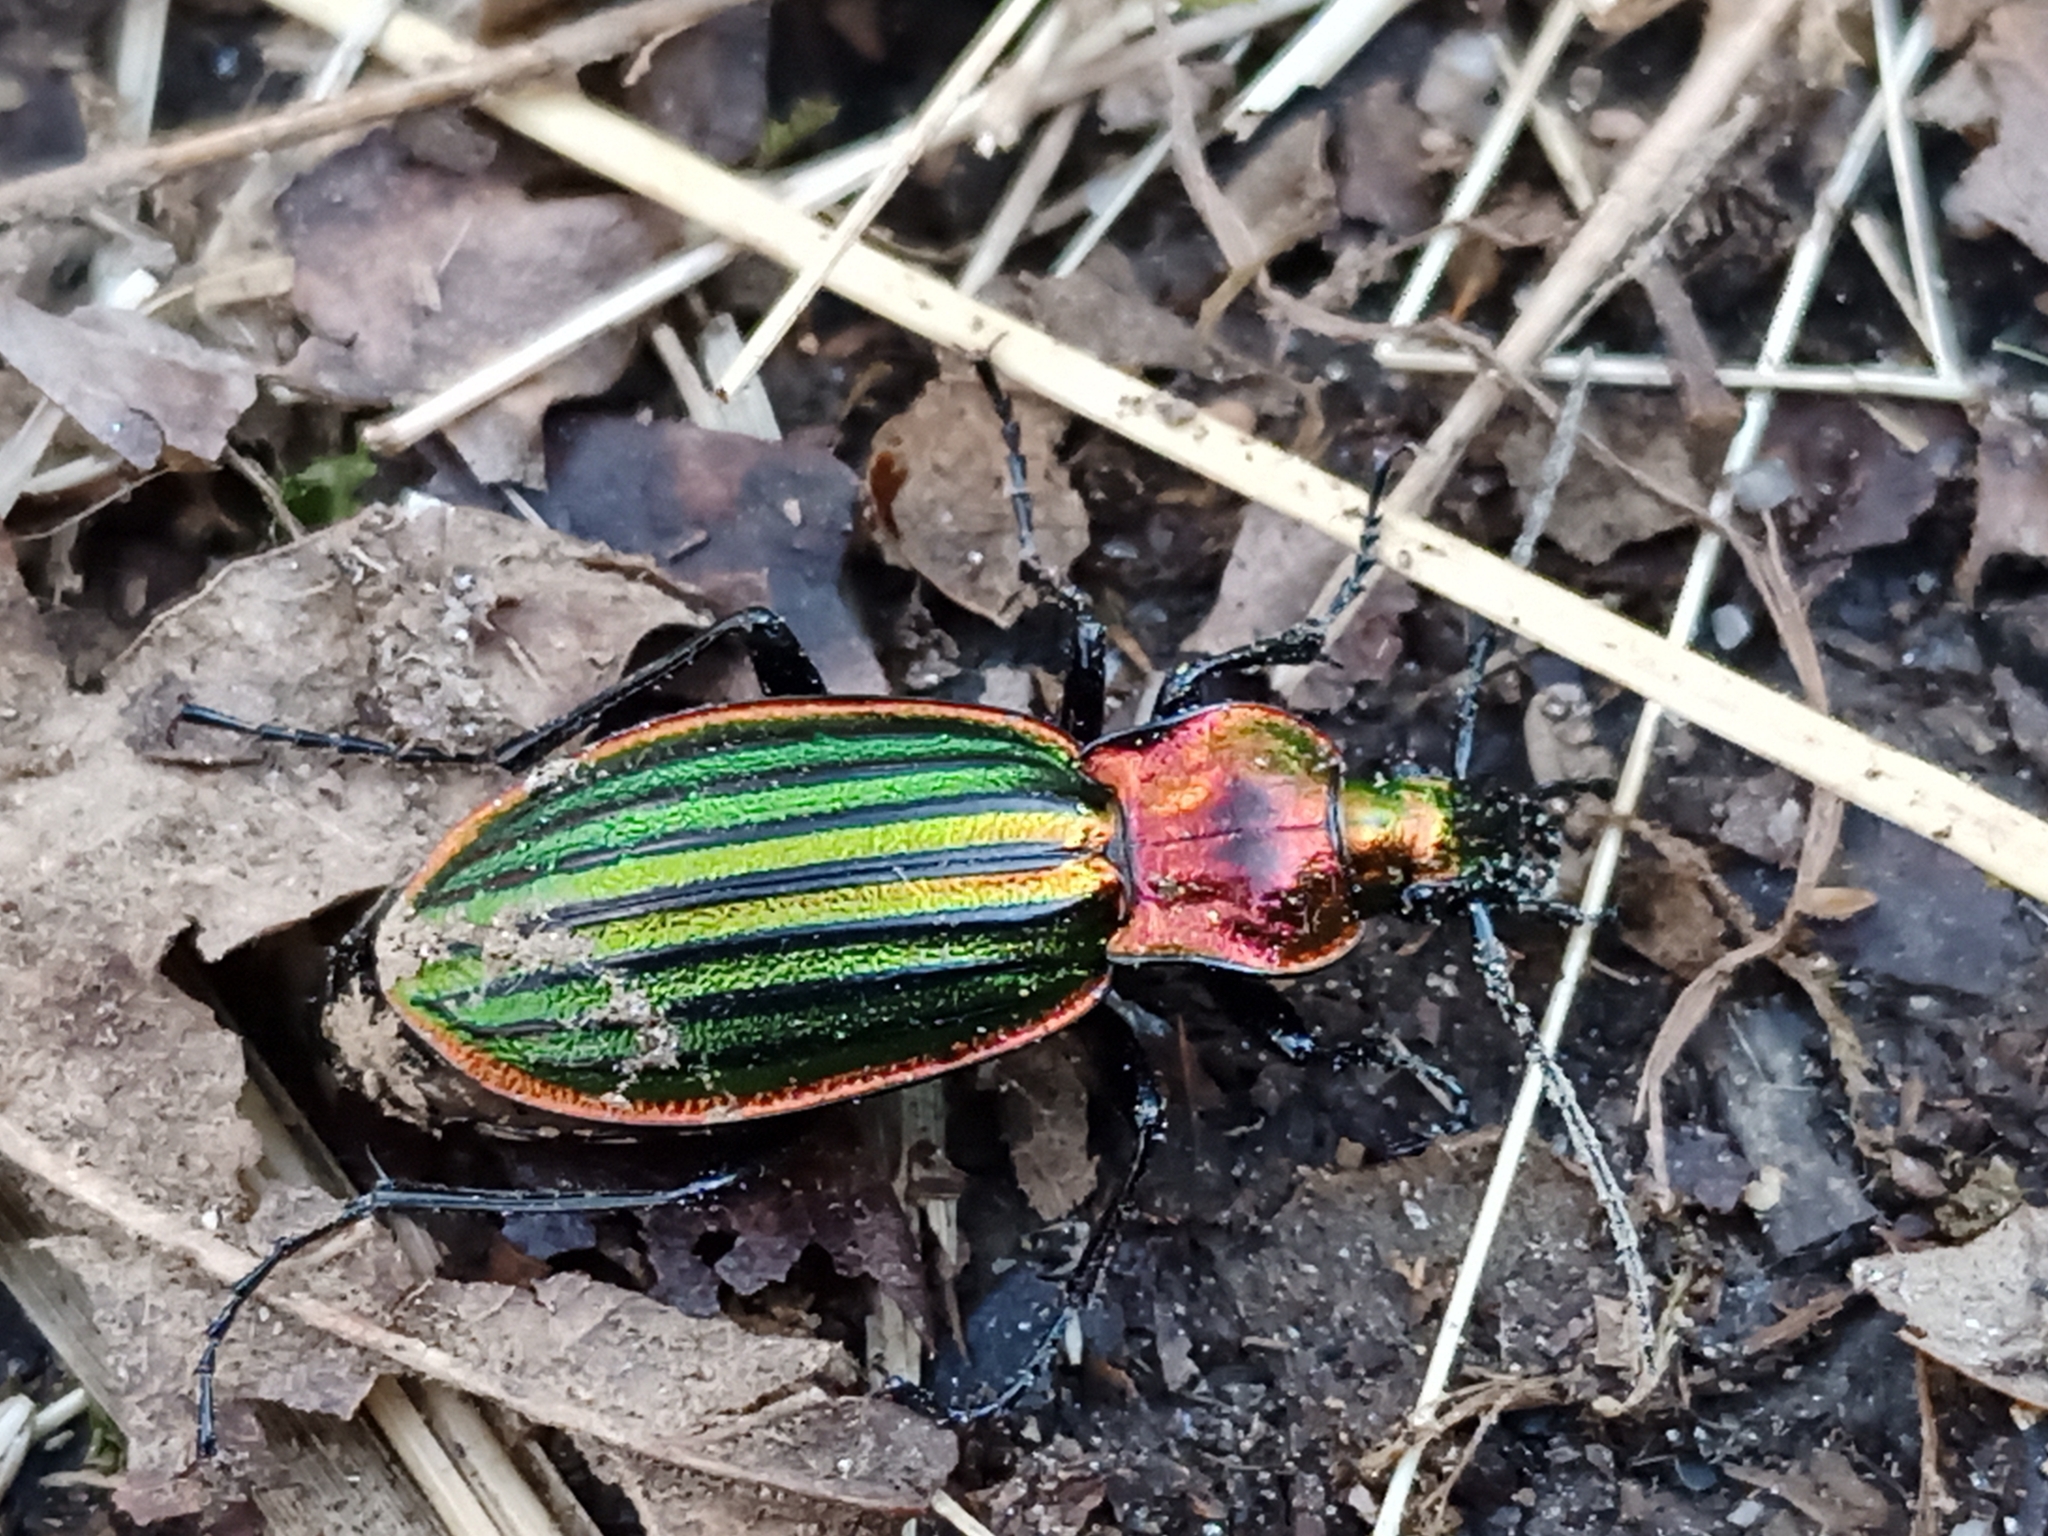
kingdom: Animalia
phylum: Arthropoda
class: Insecta
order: Coleoptera
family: Carabidae
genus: Carabus
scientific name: Carabus strasseri
